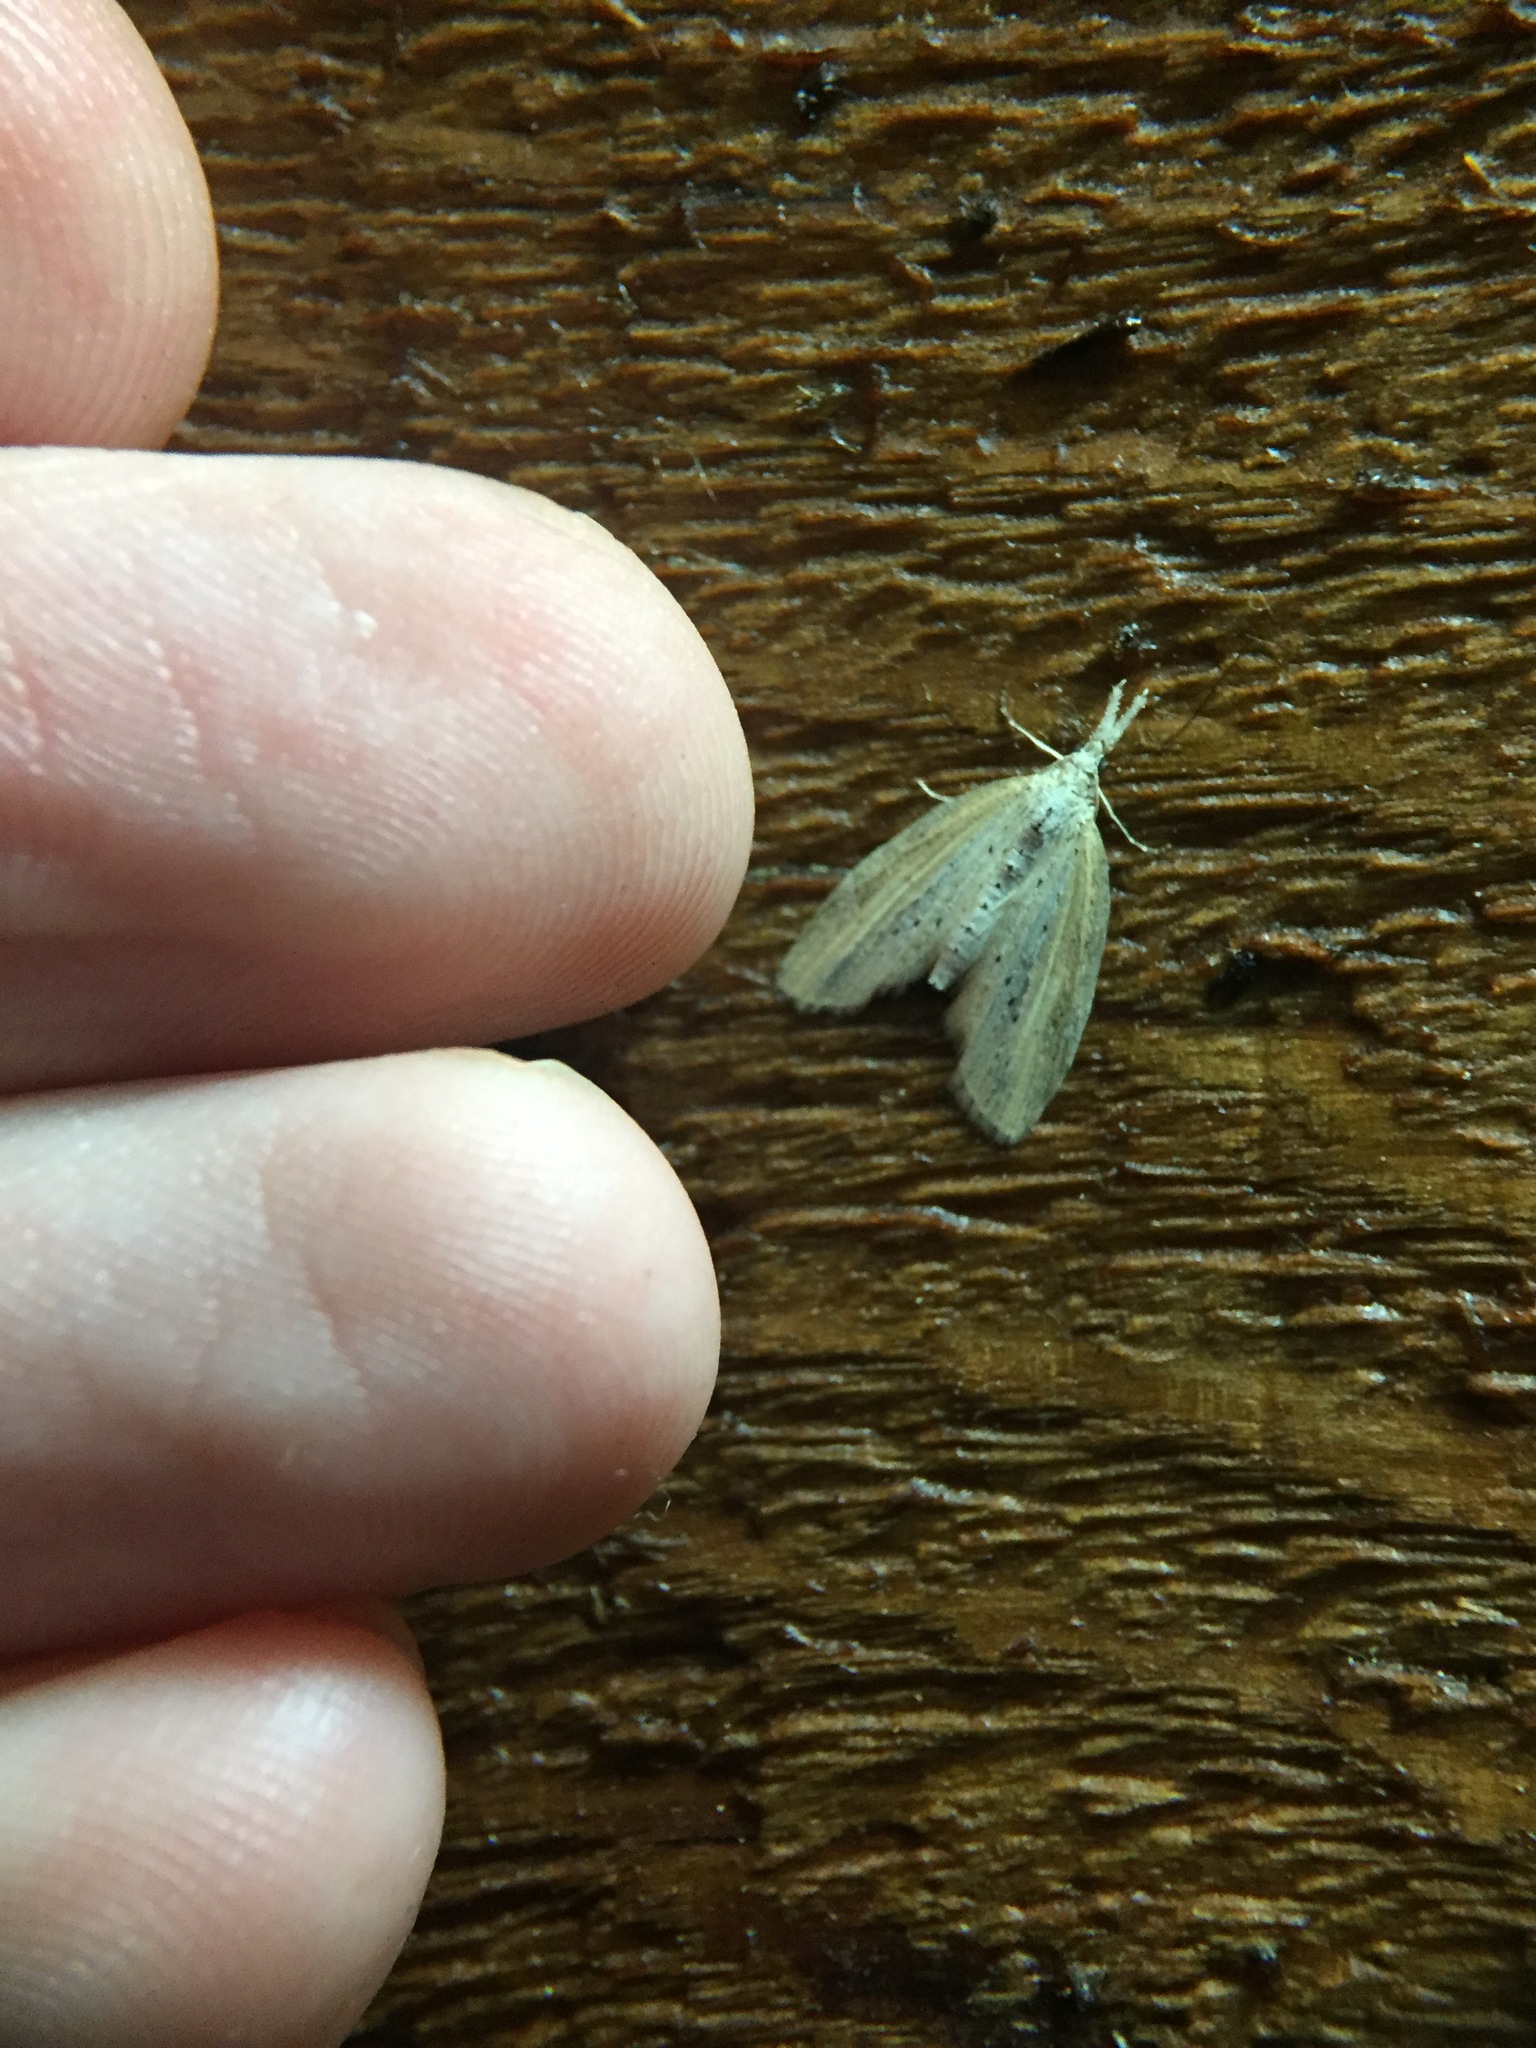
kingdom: Animalia
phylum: Arthropoda
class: Insecta
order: Lepidoptera
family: Geometridae
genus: Microdes
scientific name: Microdes epicryptis
